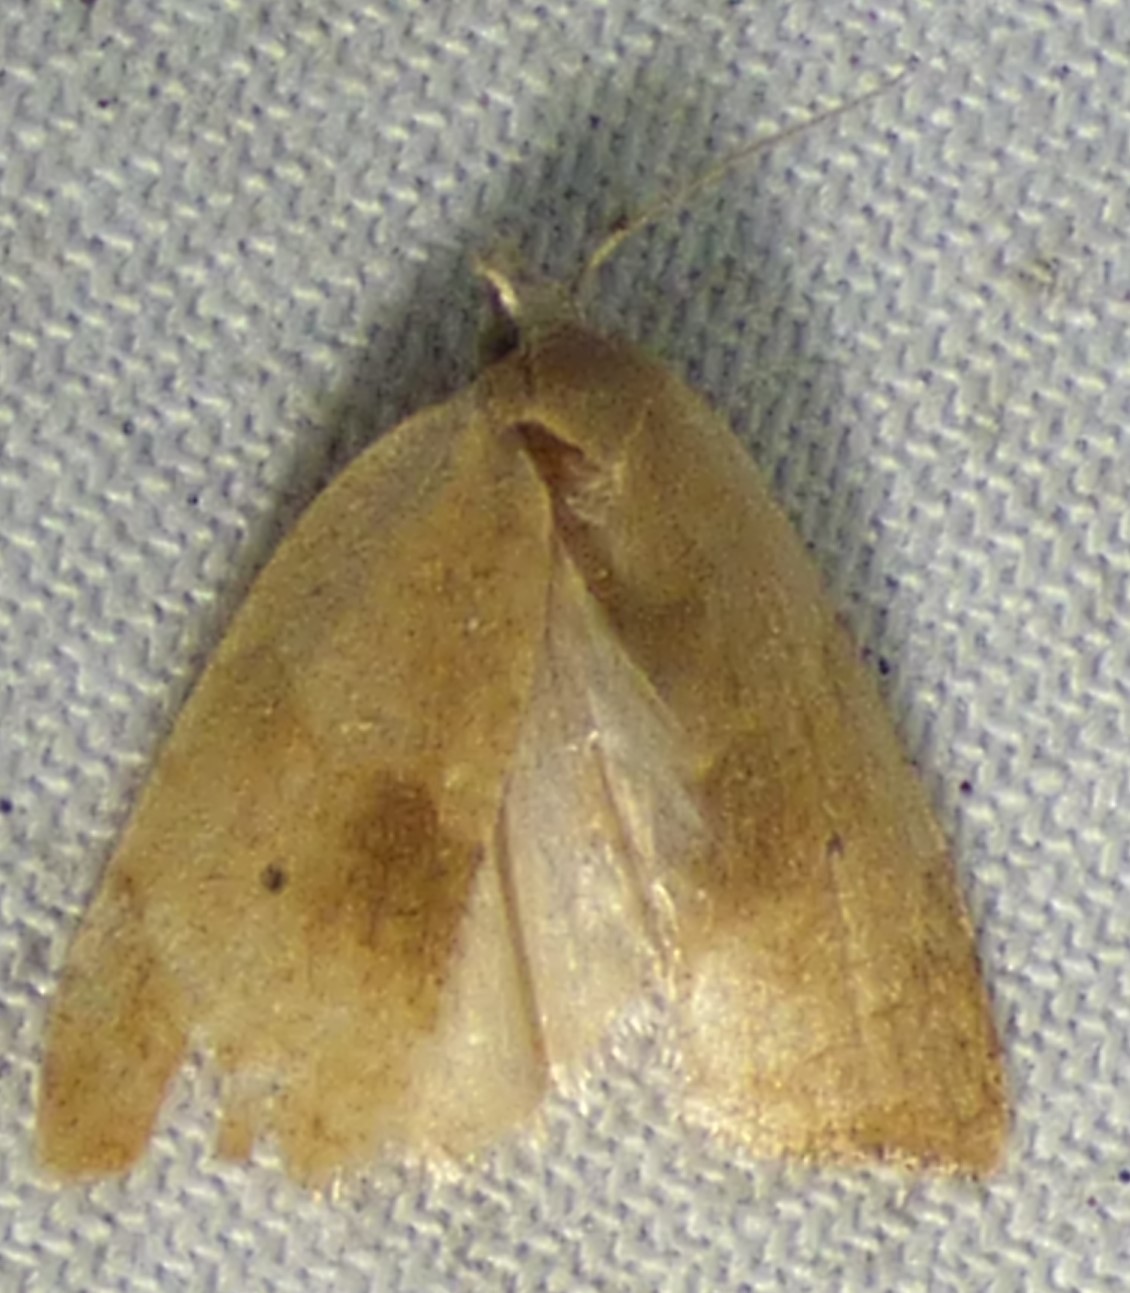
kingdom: Animalia
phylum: Arthropoda
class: Insecta
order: Lepidoptera
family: Tortricidae
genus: Coelostathma
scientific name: Coelostathma discopunctana
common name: Batman moth
